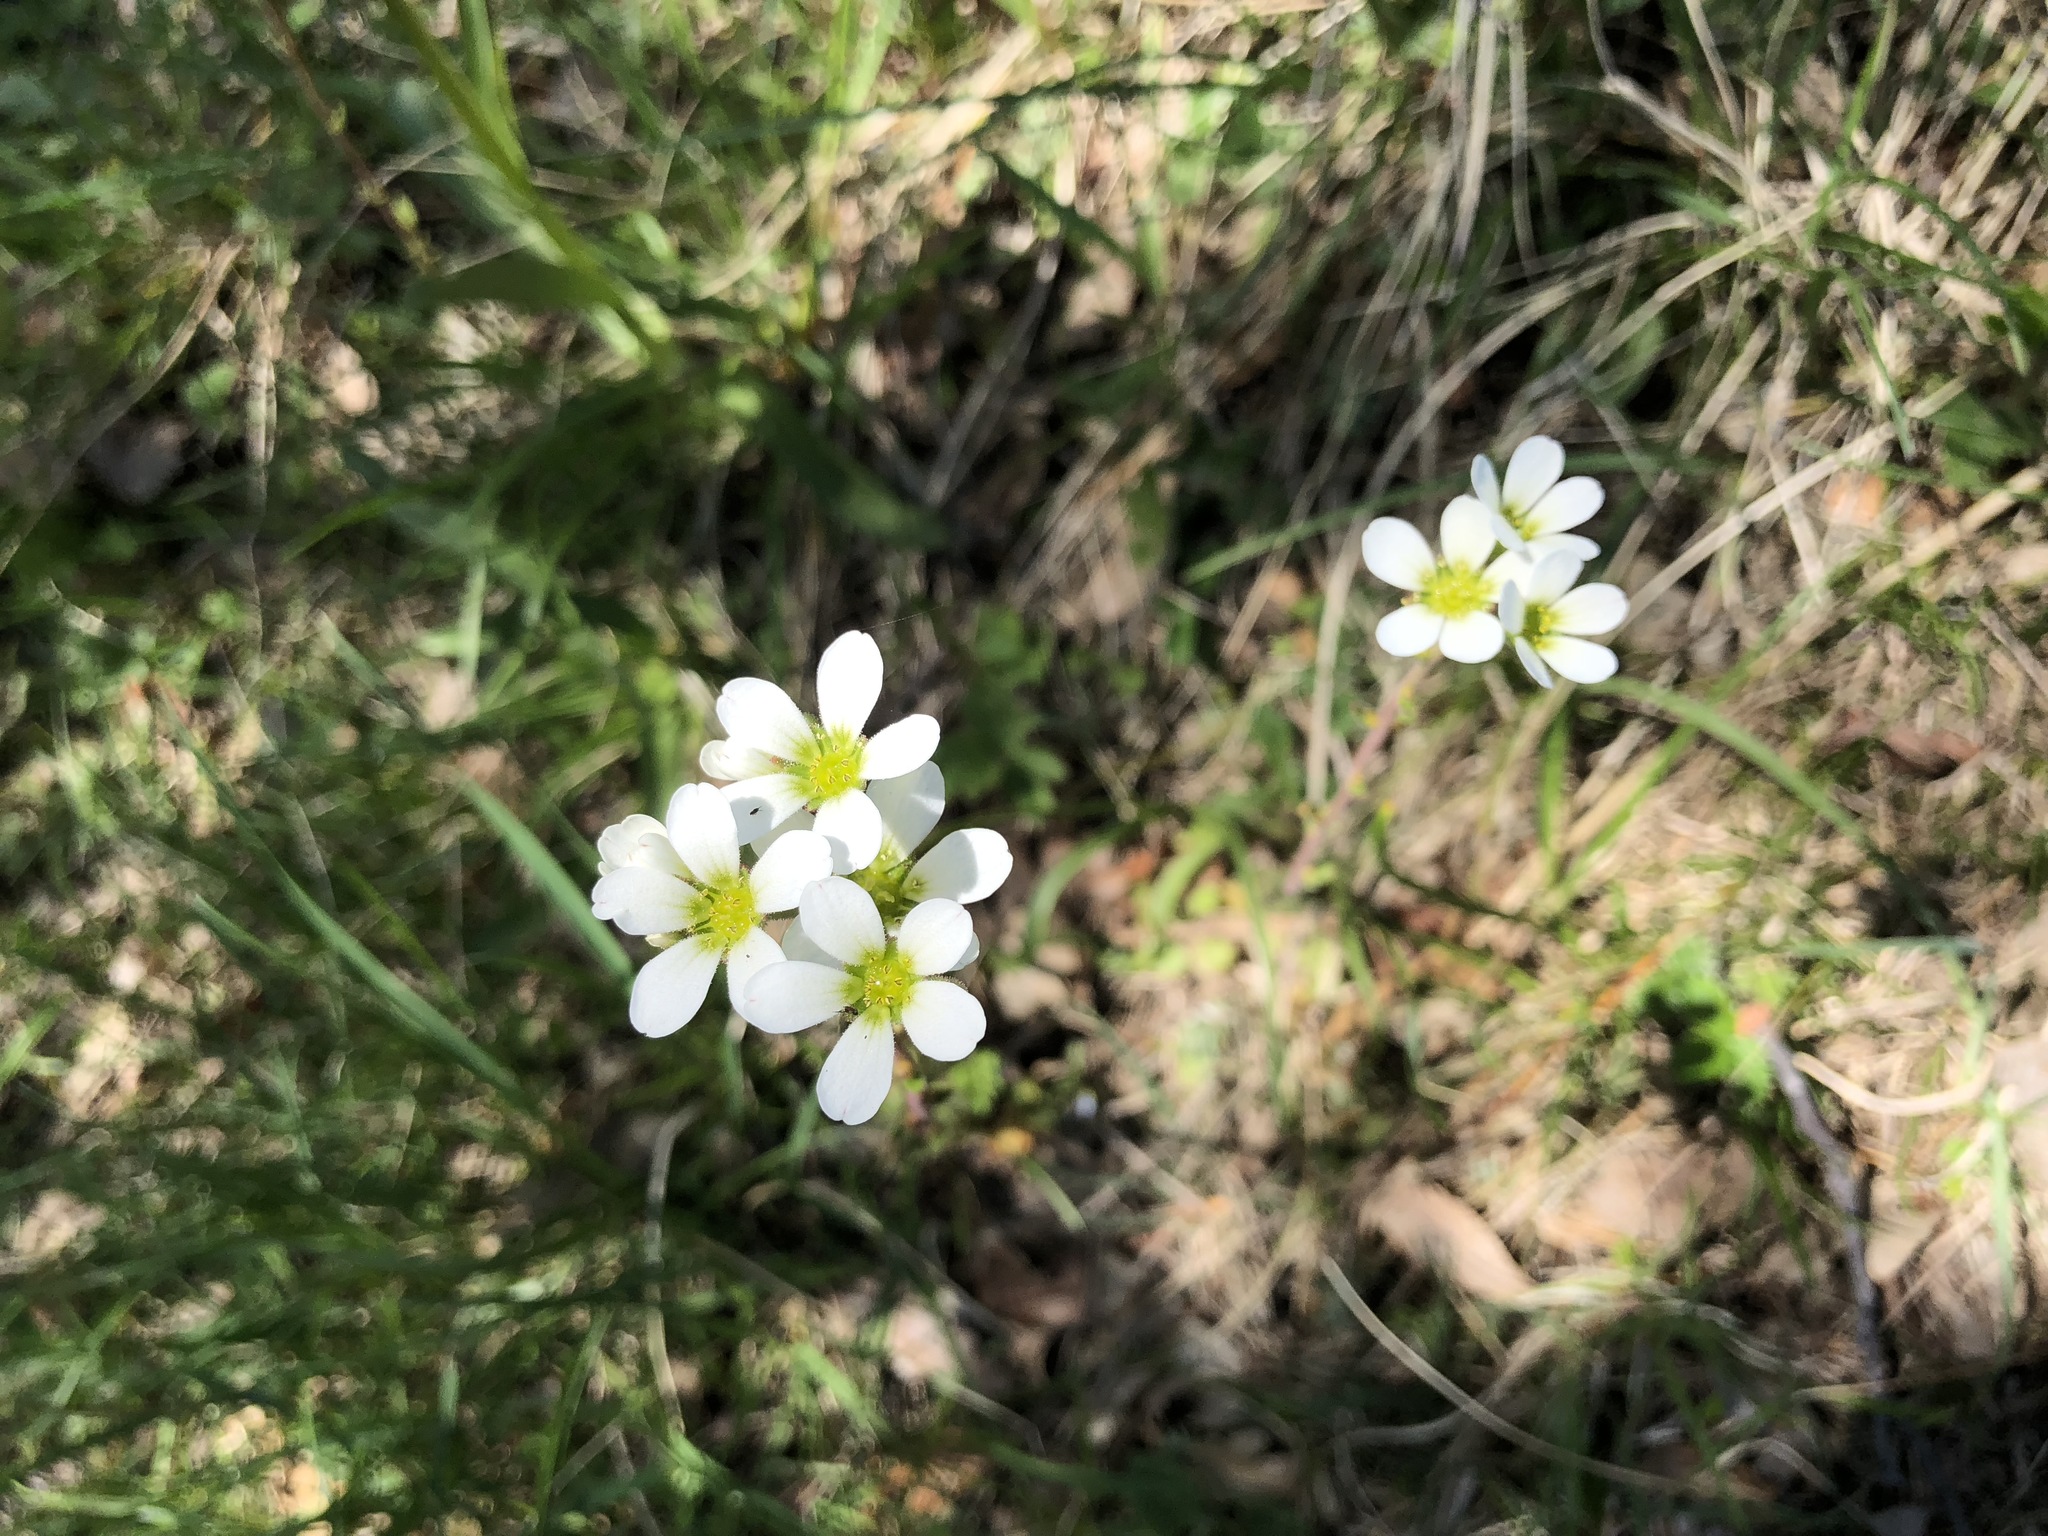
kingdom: Plantae
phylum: Tracheophyta
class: Magnoliopsida
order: Saxifragales
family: Saxifragaceae
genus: Saxifraga
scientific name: Saxifraga bulbifera
